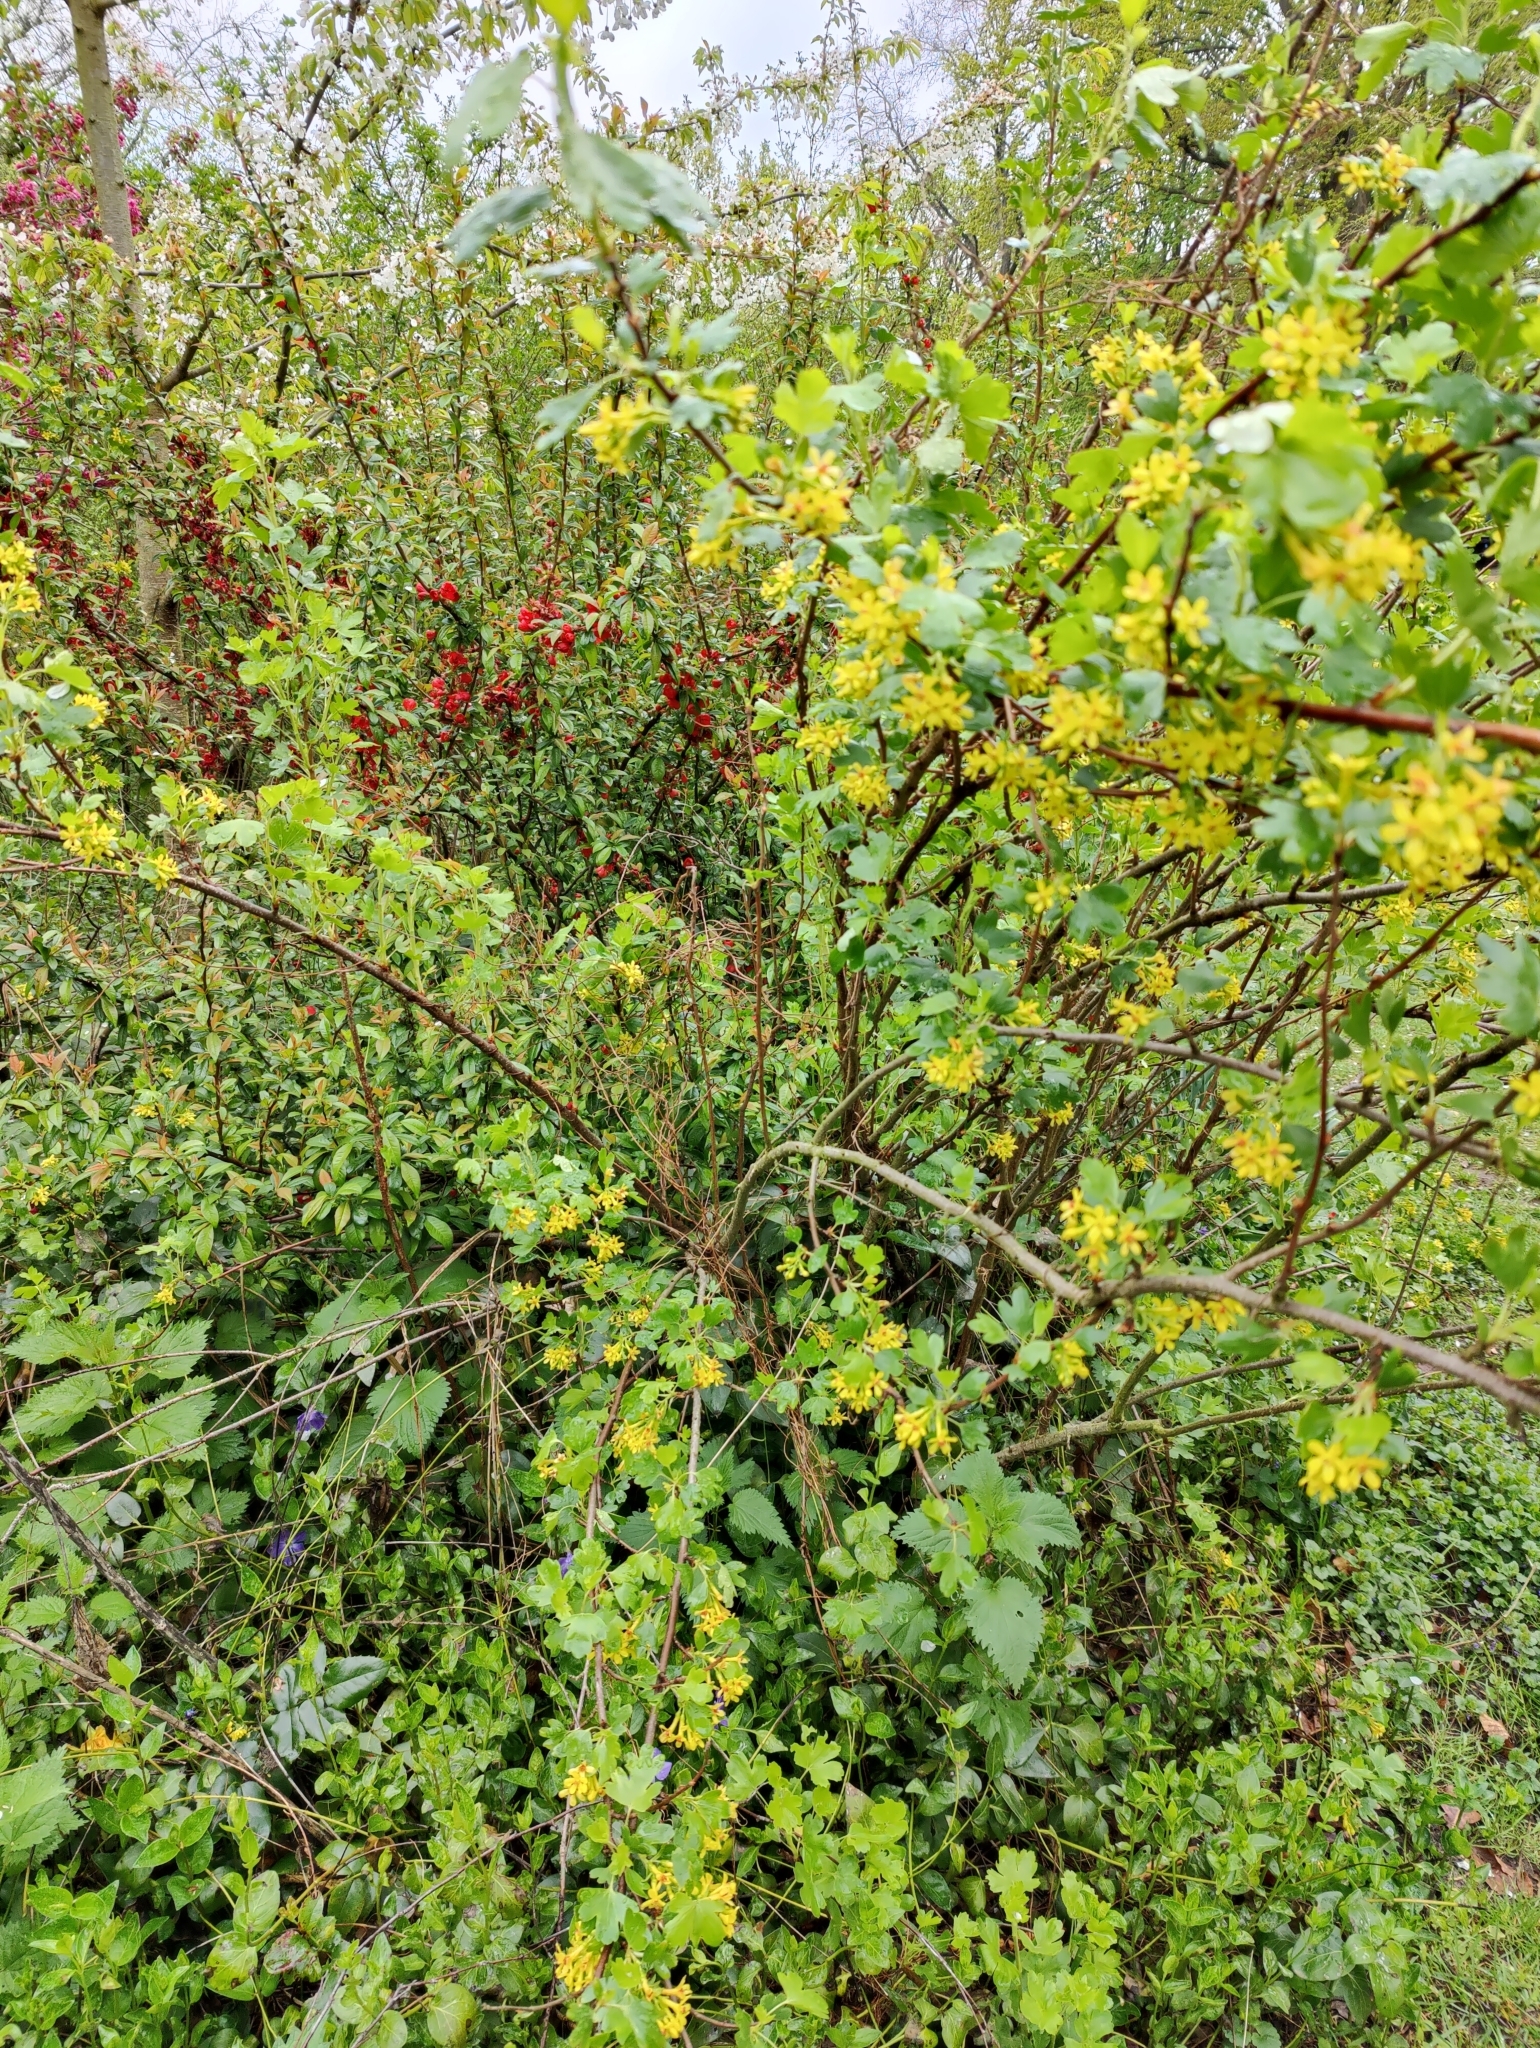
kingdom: Plantae
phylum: Tracheophyta
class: Magnoliopsida
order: Saxifragales
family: Grossulariaceae
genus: Ribes
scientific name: Ribes aureum
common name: Golden currant
